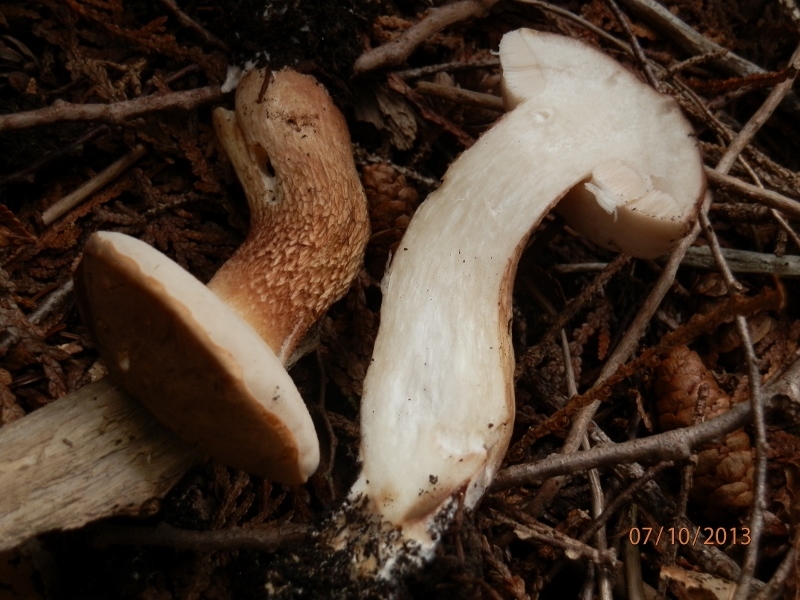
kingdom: Fungi
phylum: Basidiomycota
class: Agaricomycetes
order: Boletales
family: Boletaceae
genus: Tylopilus
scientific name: Tylopilus felleus
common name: Bitter bolete
